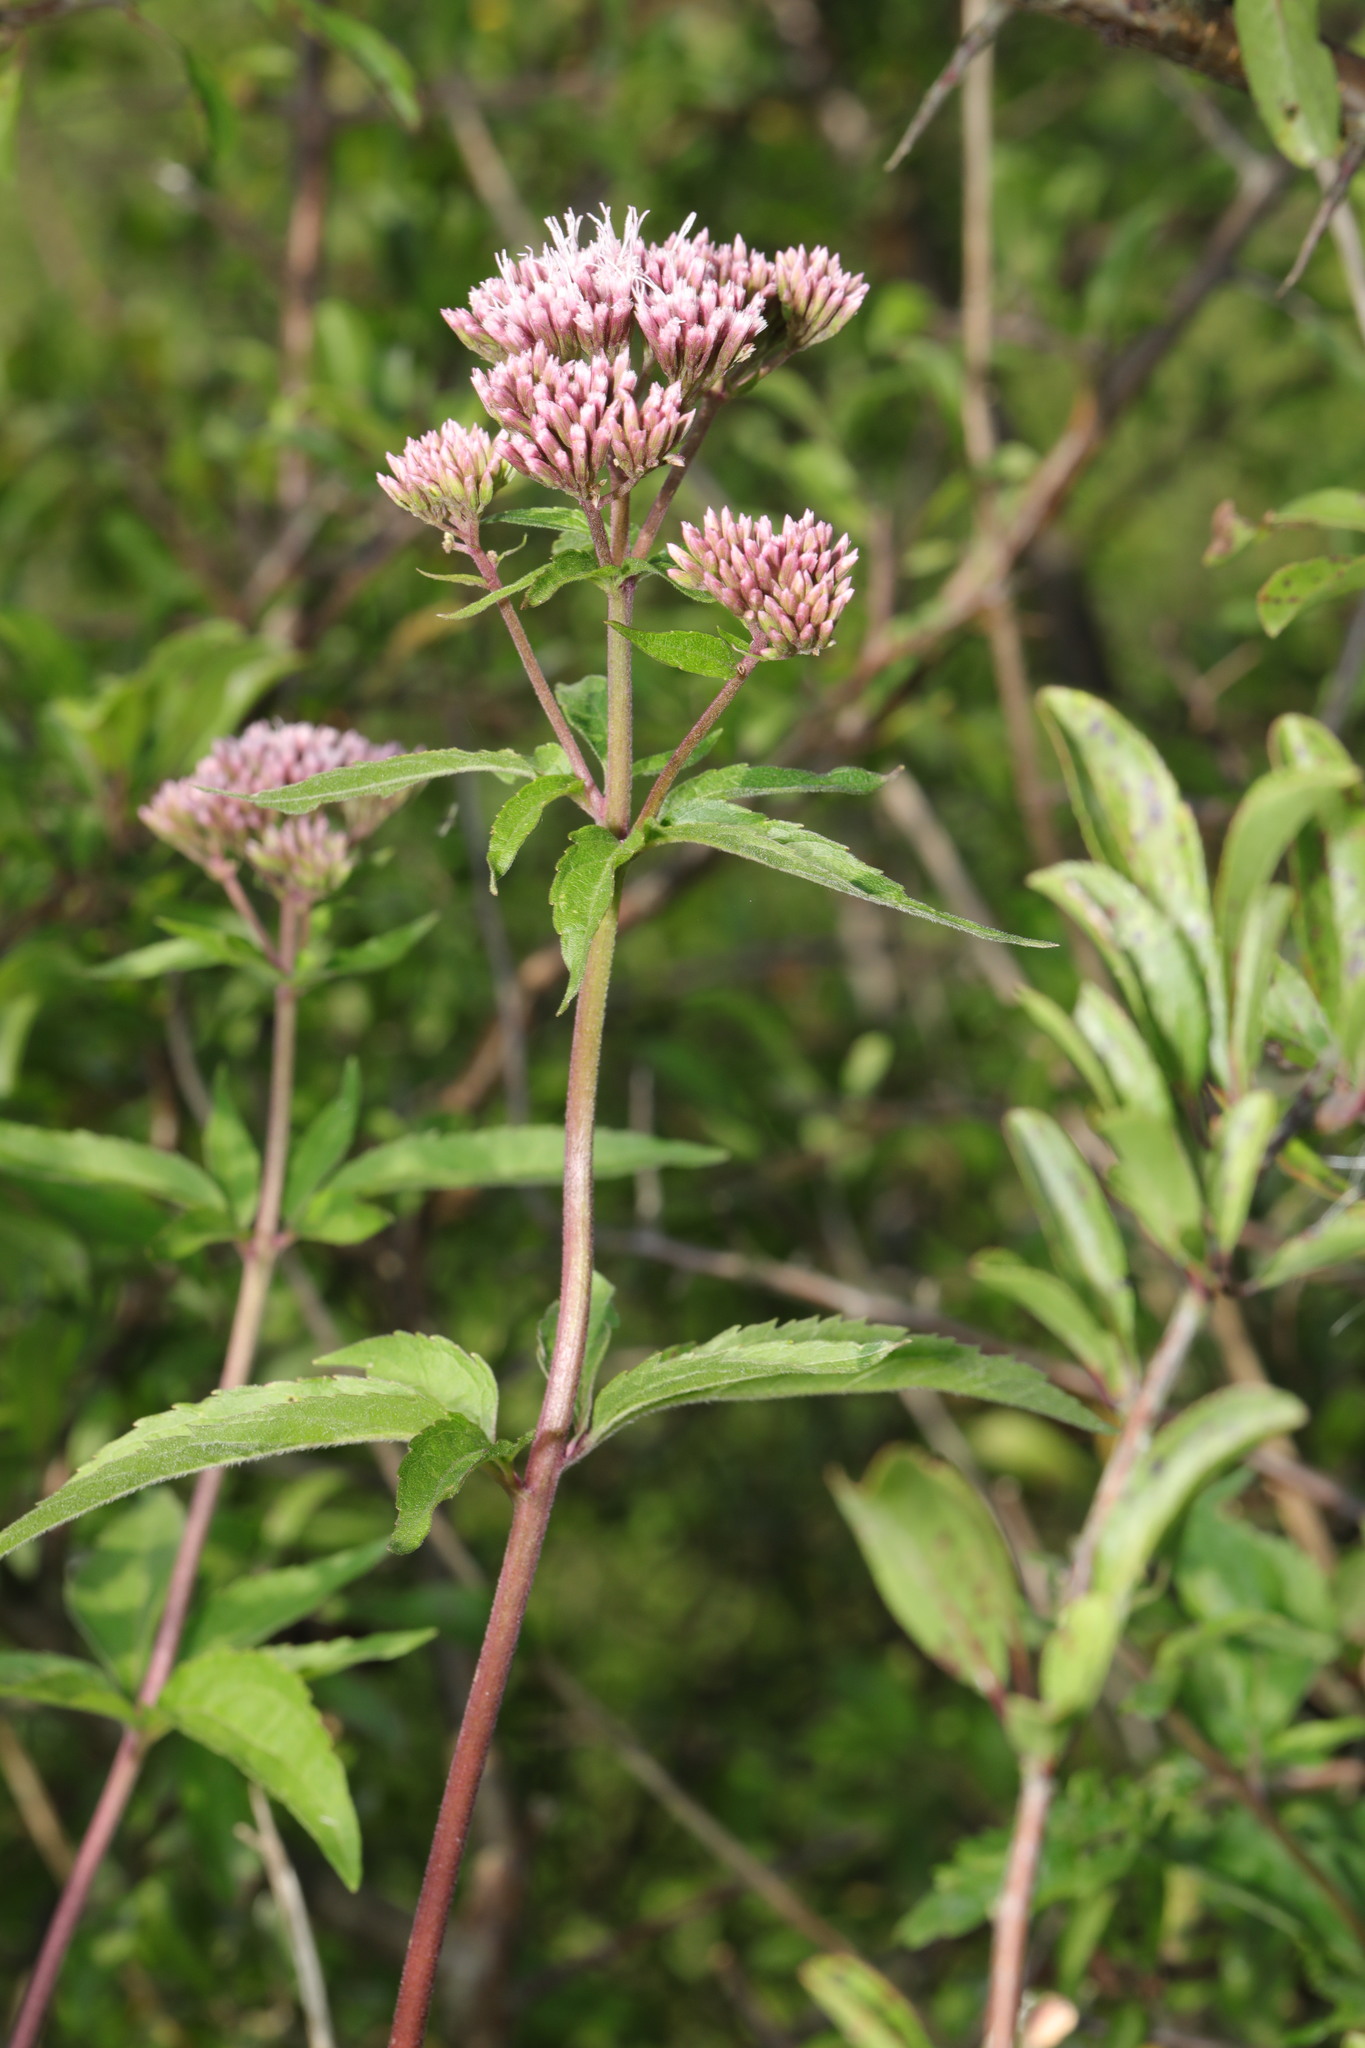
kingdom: Plantae
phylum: Tracheophyta
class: Magnoliopsida
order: Asterales
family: Asteraceae
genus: Eupatorium
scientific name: Eupatorium cannabinum
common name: Hemp-agrimony
